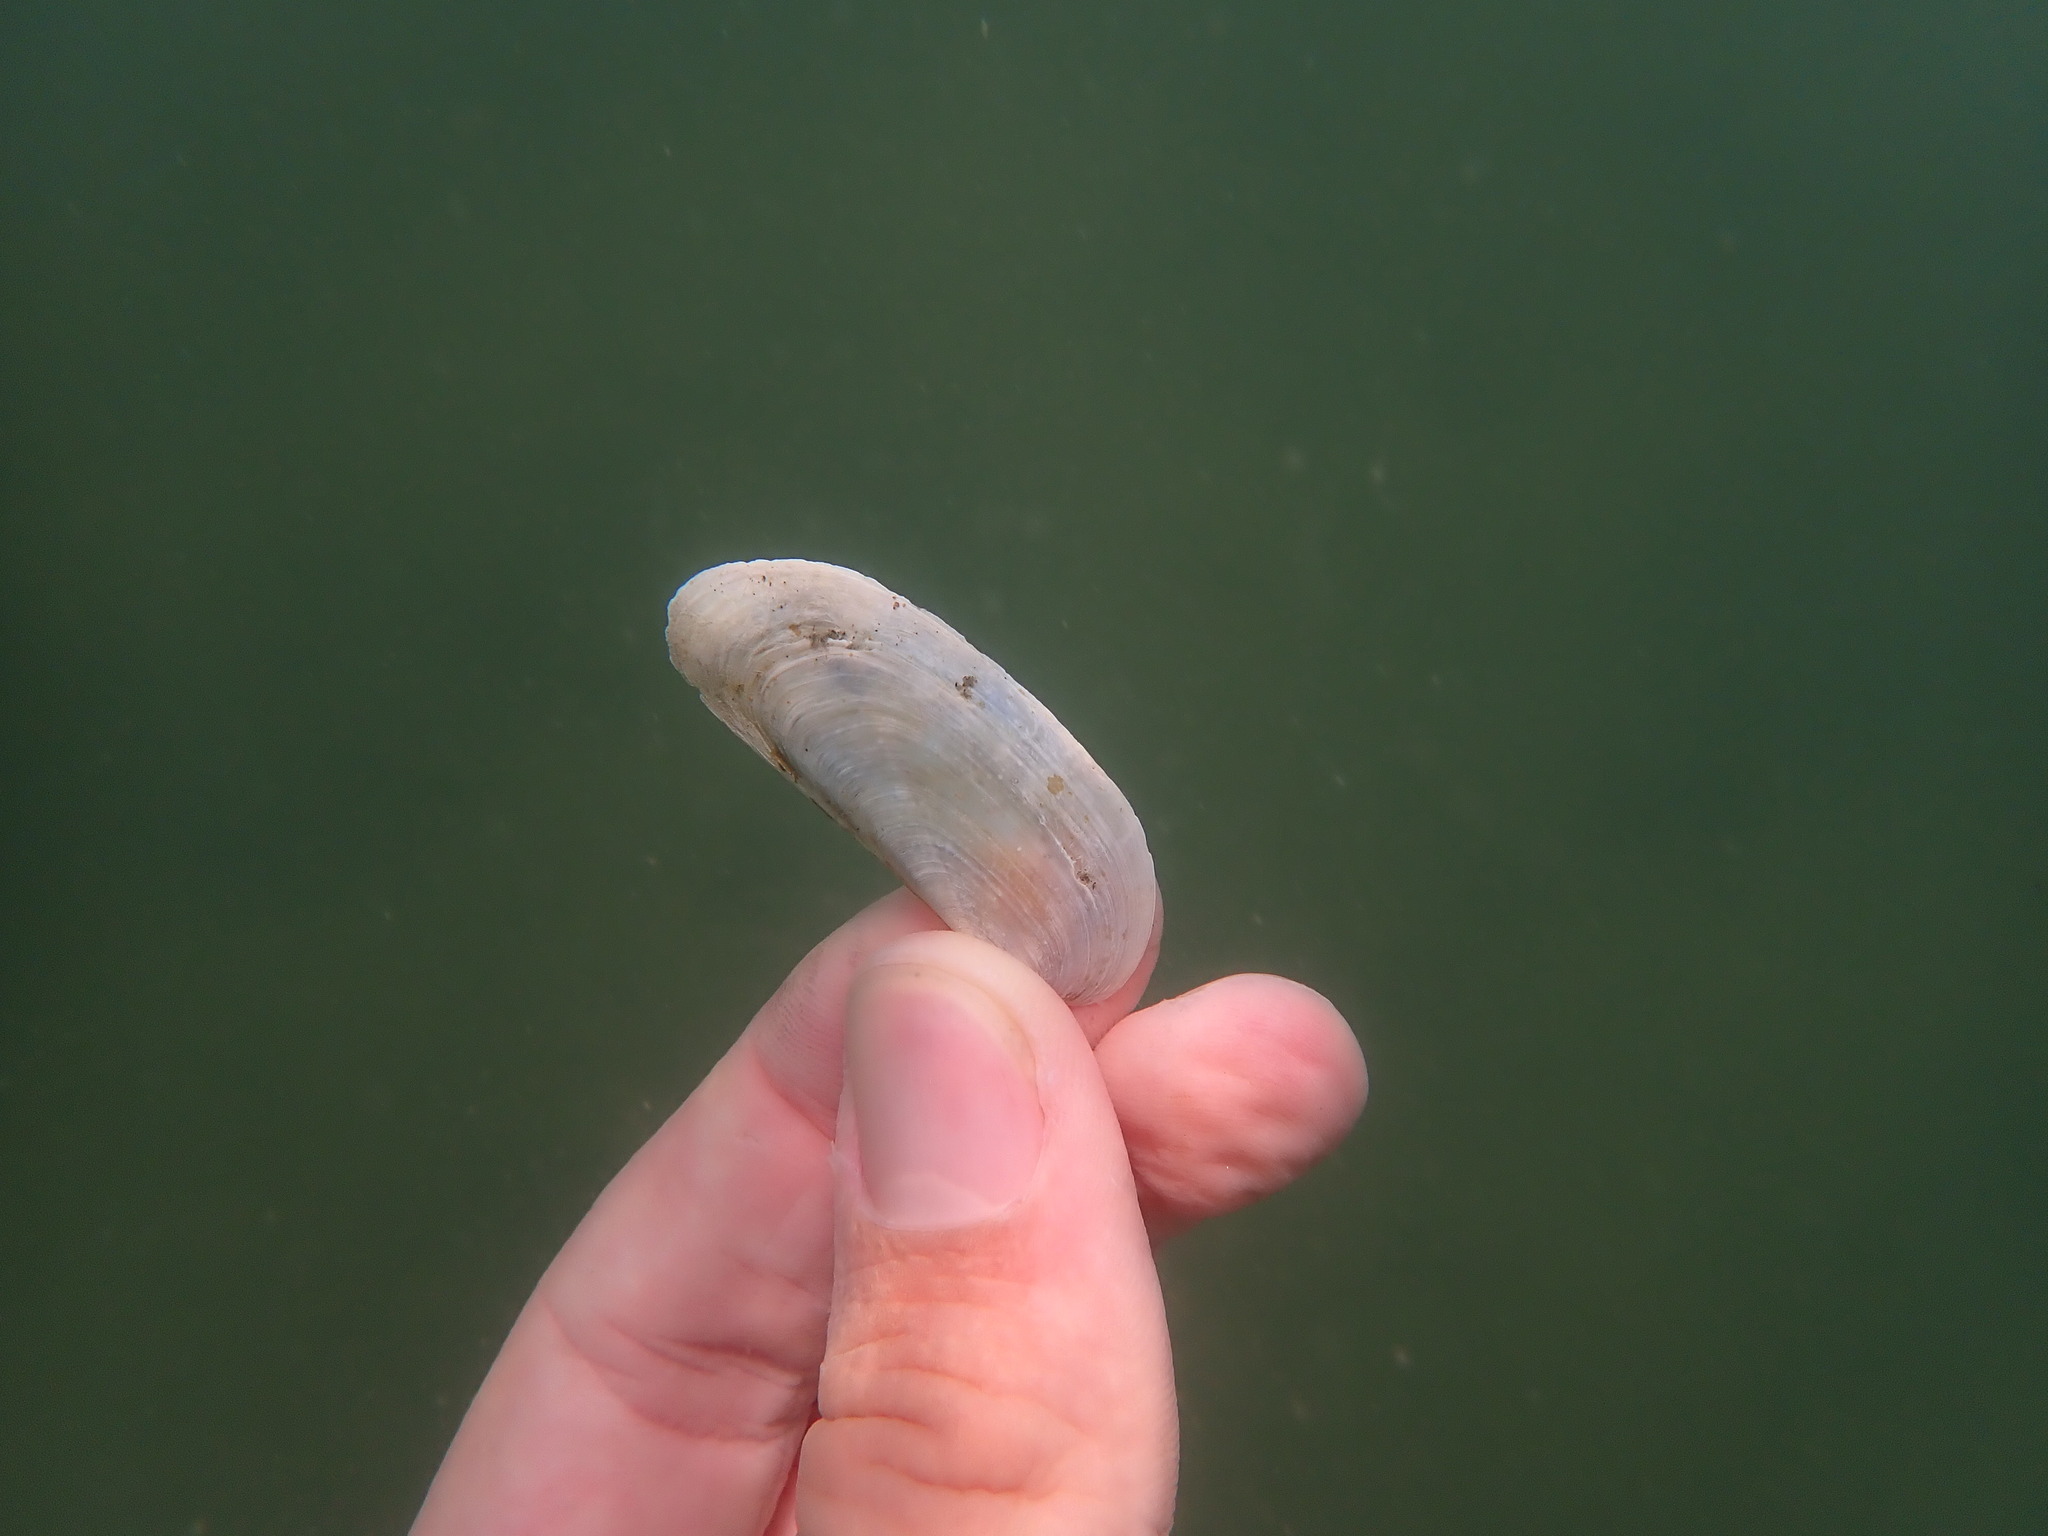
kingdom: Animalia
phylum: Mollusca
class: Bivalvia
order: Venerida
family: Mactridae
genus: Zenatia
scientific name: Zenatia acinaces
